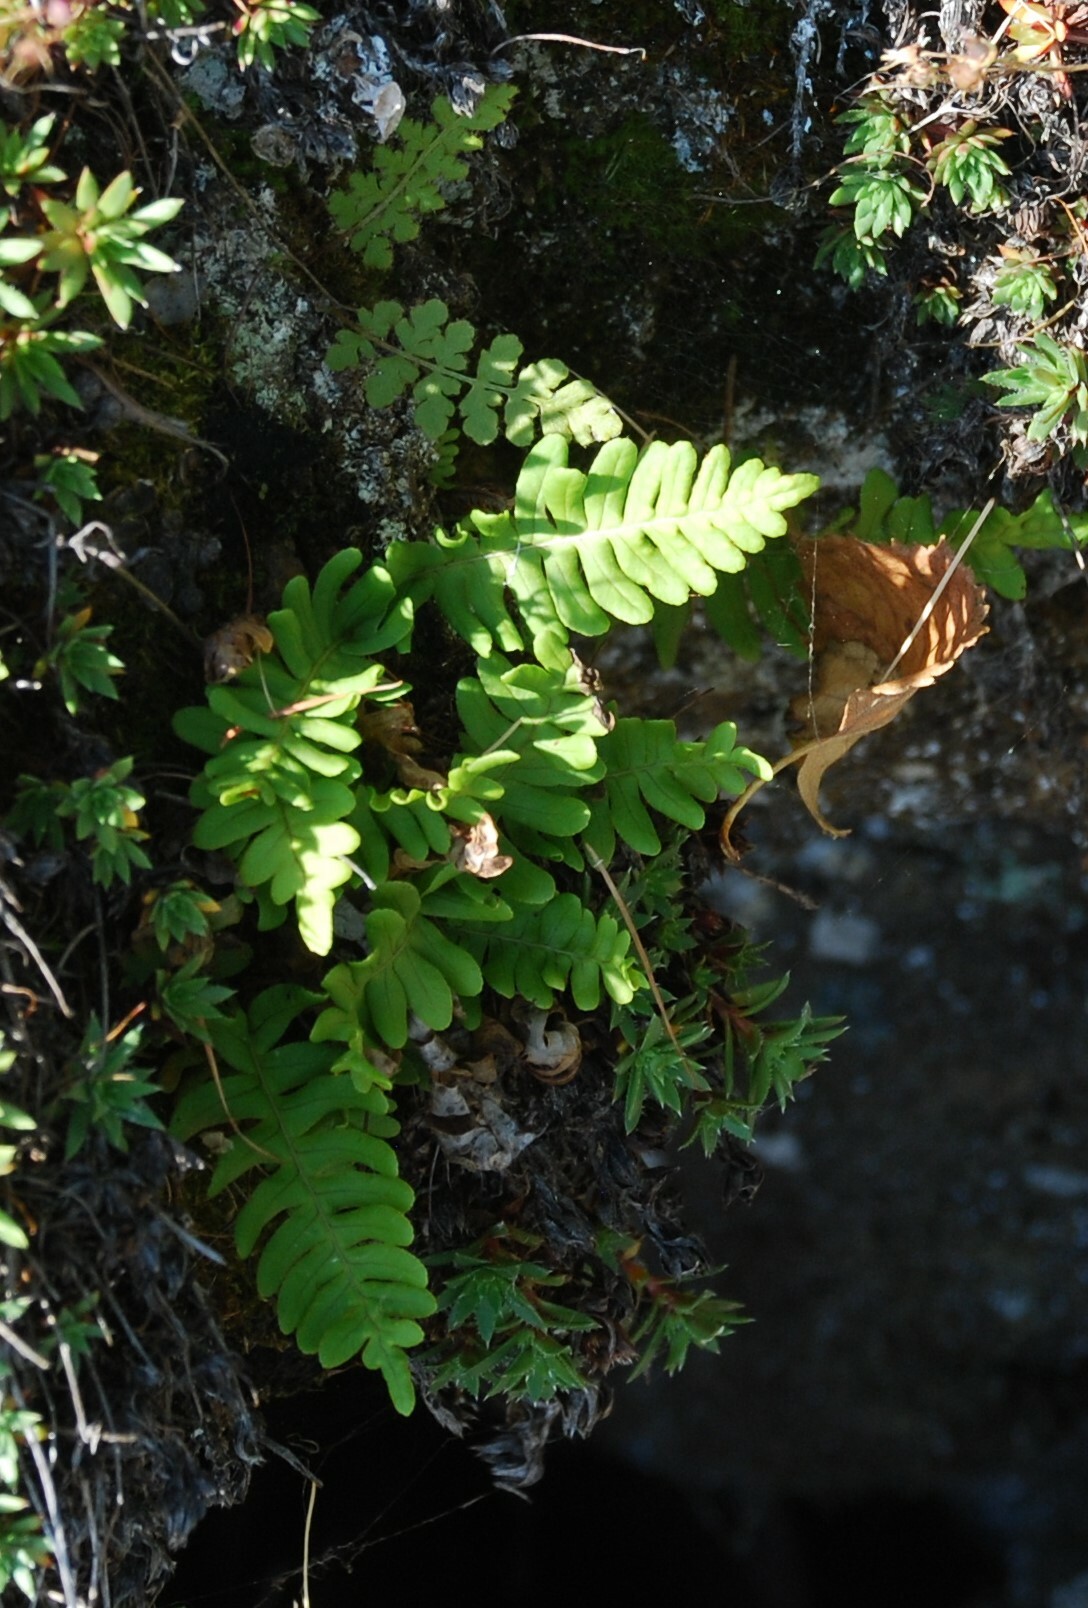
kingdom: Plantae
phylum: Tracheophyta
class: Polypodiopsida
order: Polypodiales
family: Polypodiaceae
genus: Polypodium
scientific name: Polypodium sibiricum
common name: Siberian polypody
